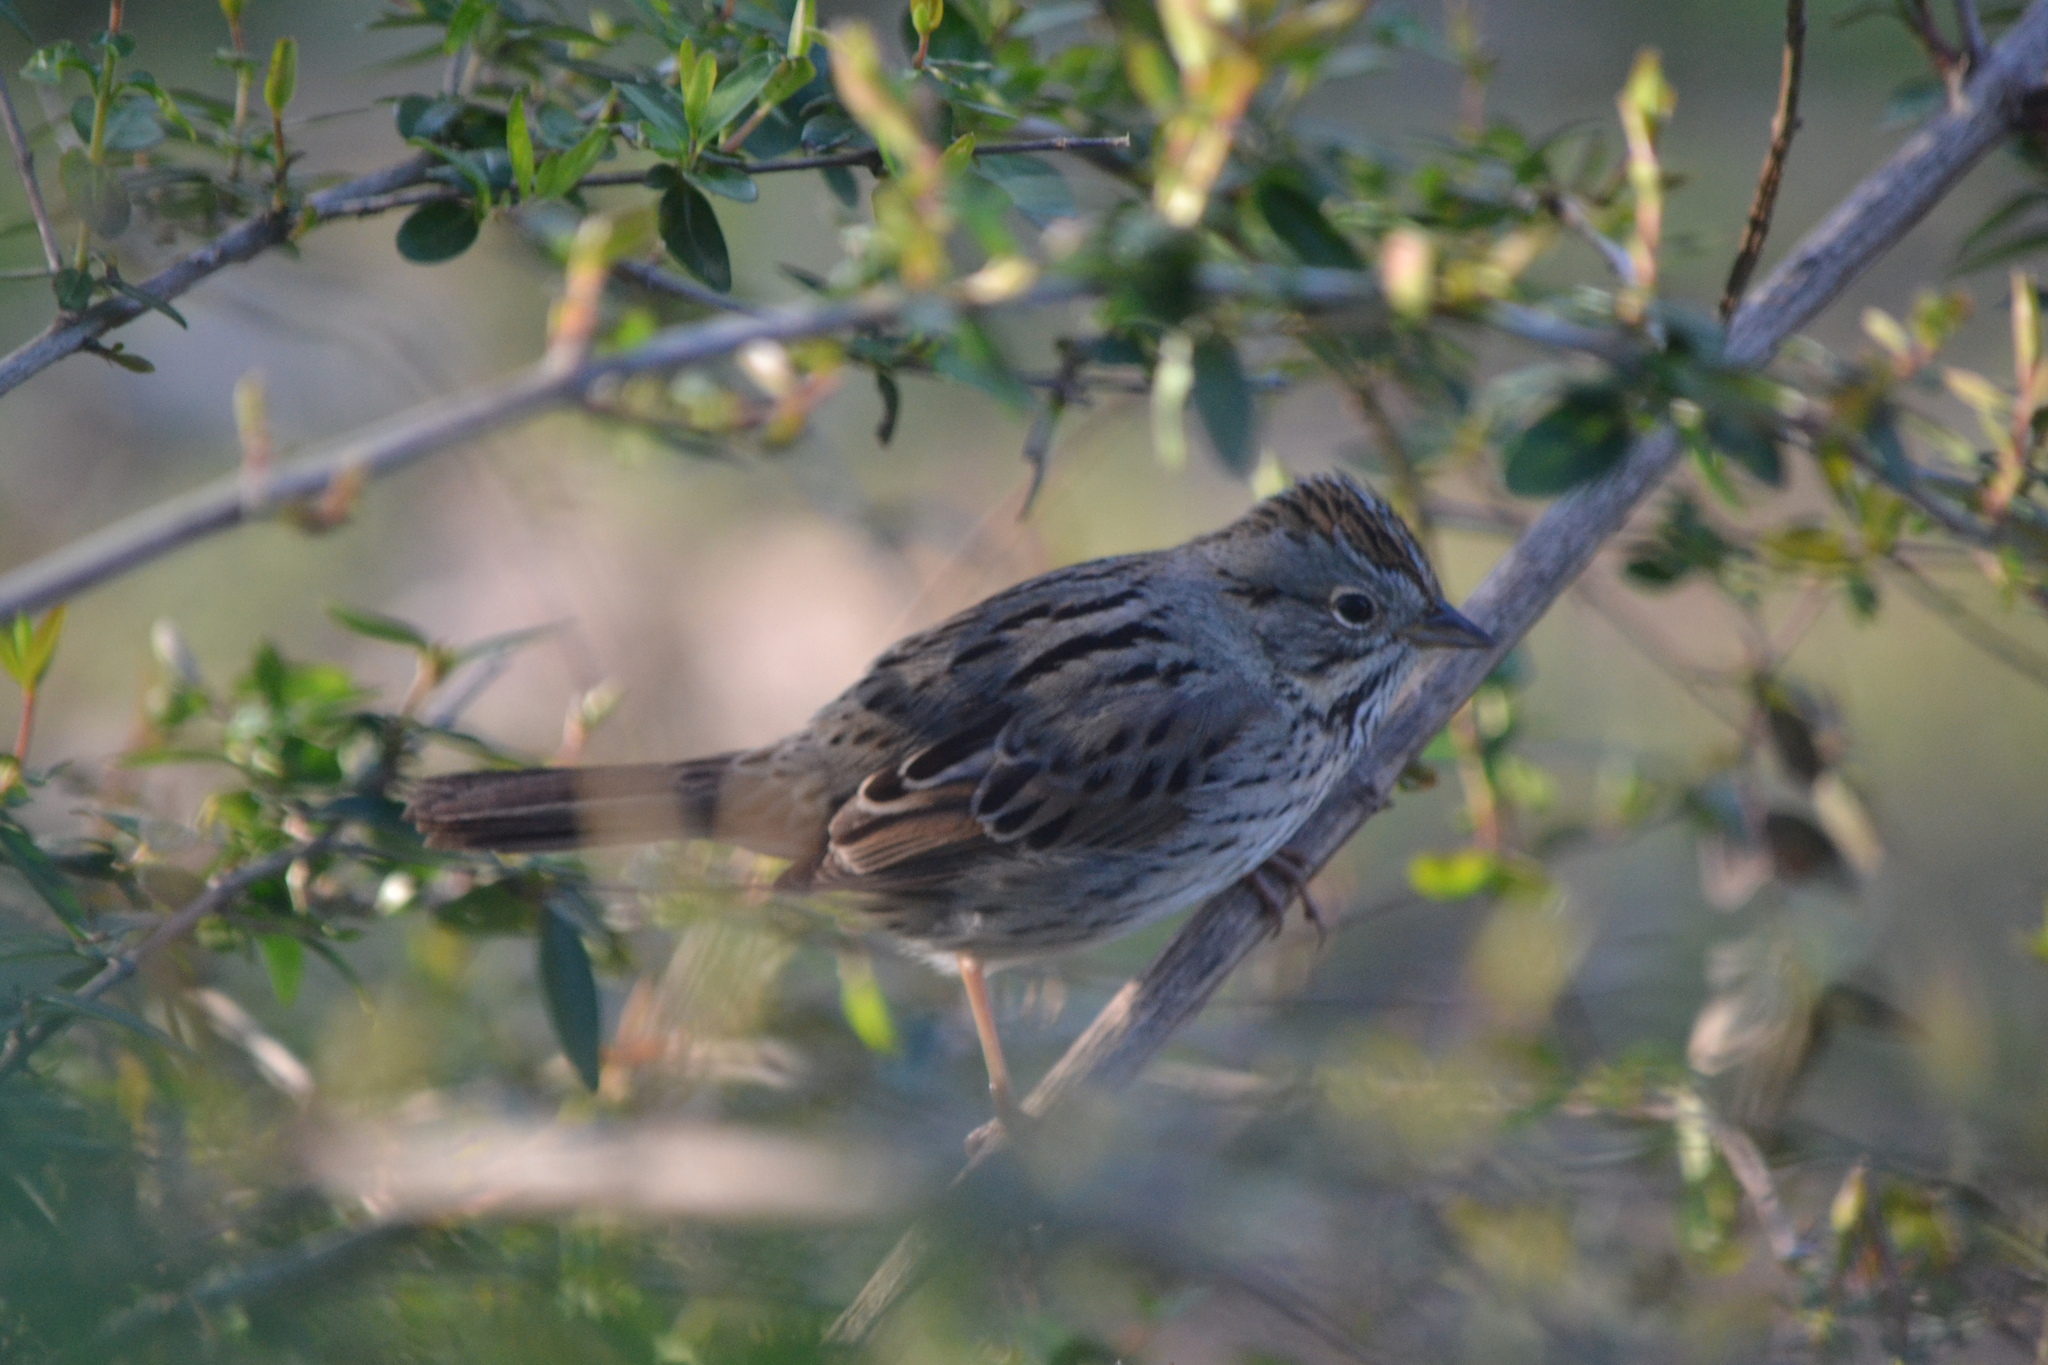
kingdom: Animalia
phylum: Chordata
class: Aves
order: Passeriformes
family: Passerellidae
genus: Melospiza
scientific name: Melospiza lincolnii
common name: Lincoln's sparrow
